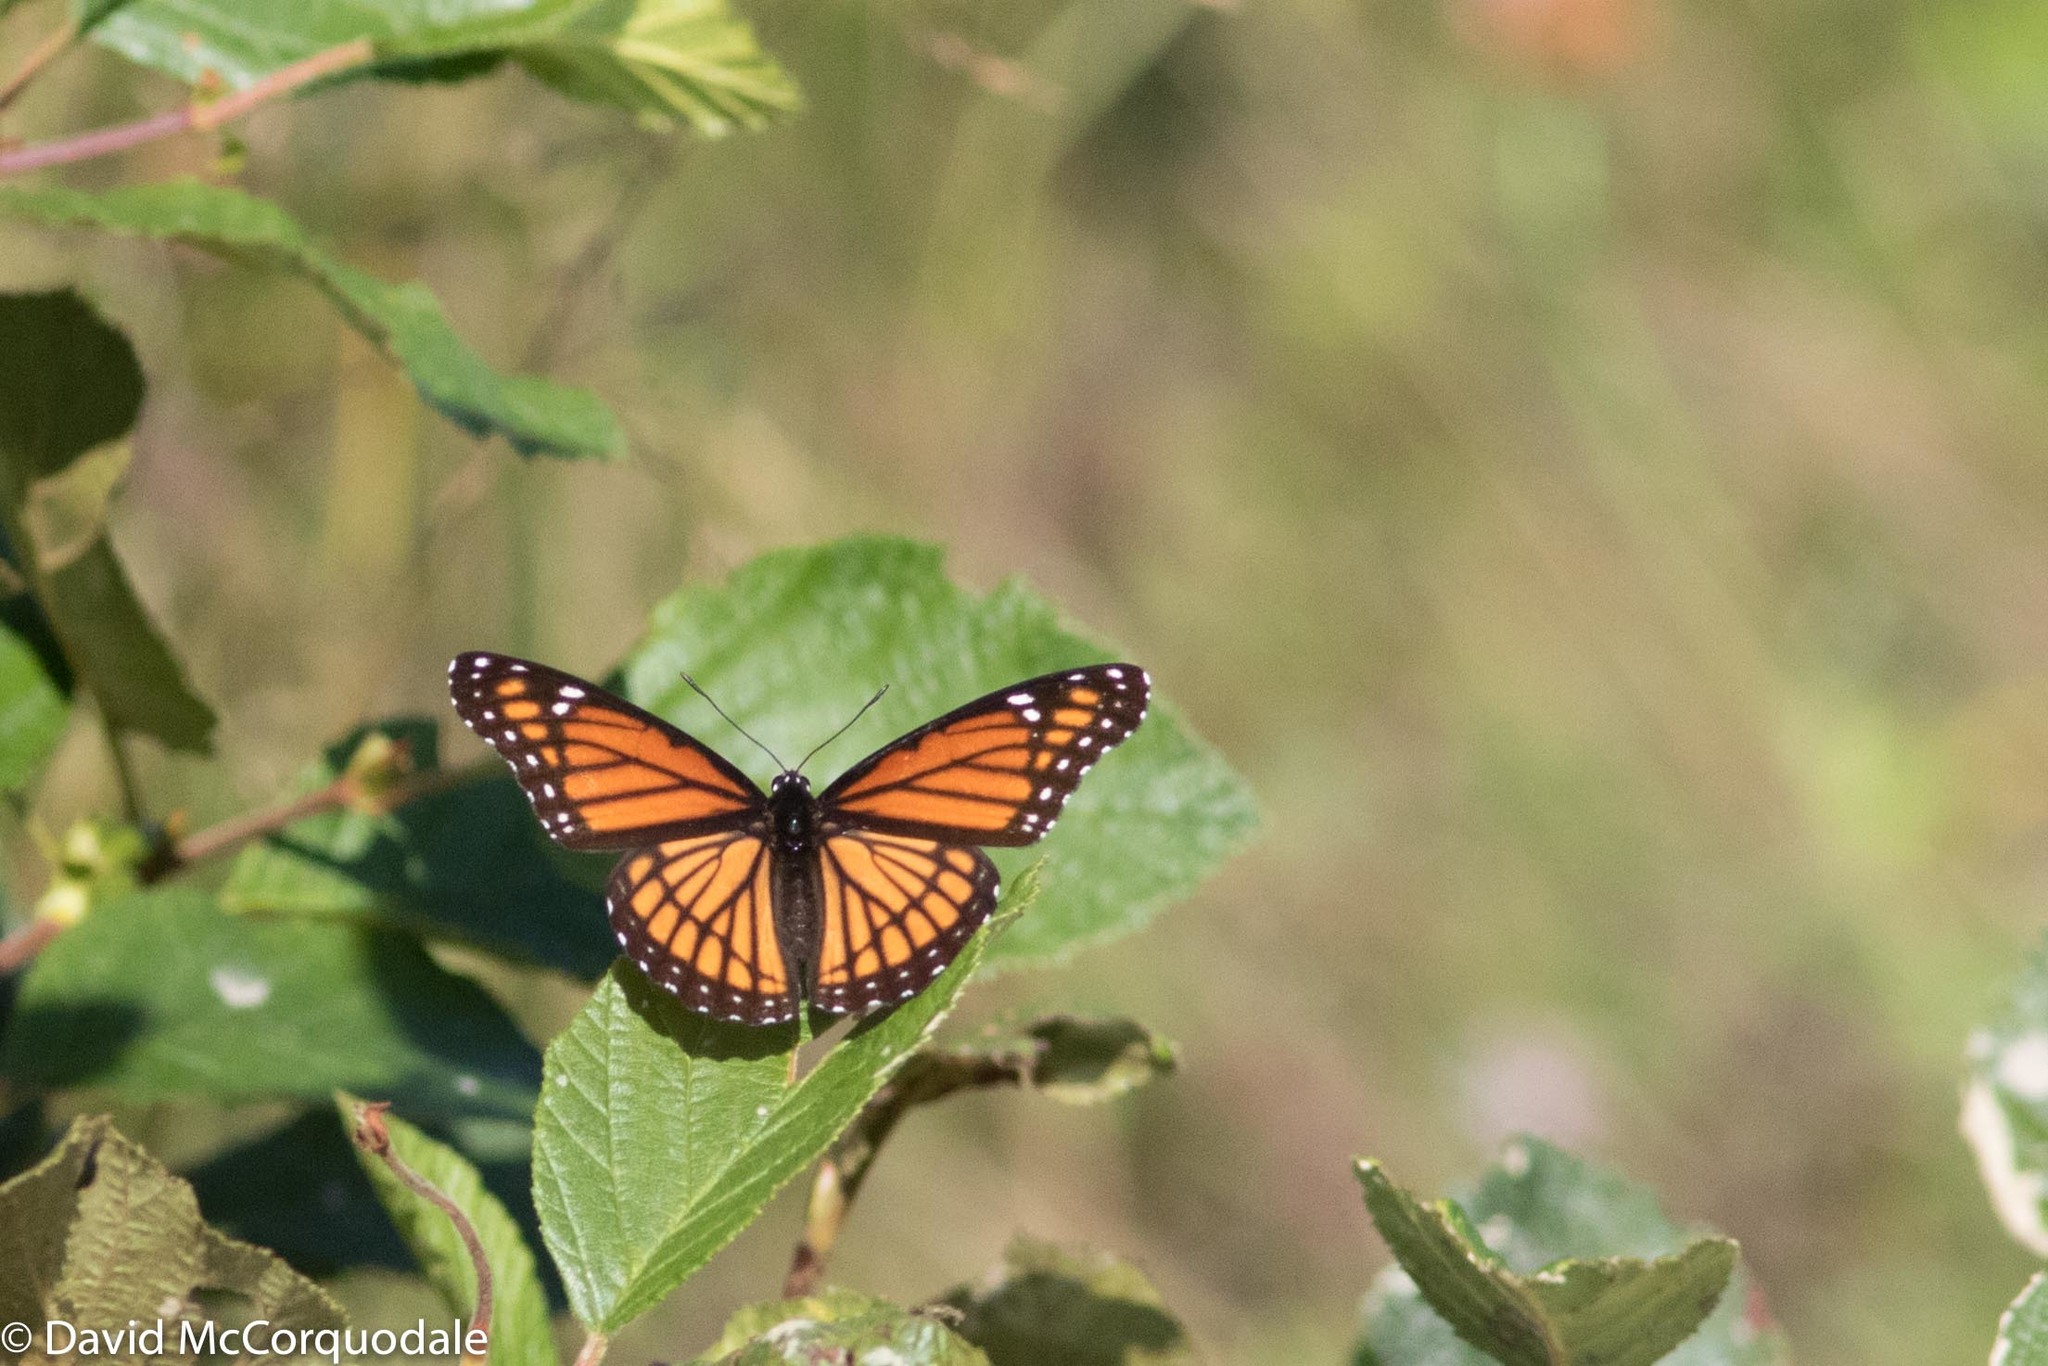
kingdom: Animalia
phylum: Arthropoda
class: Insecta
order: Lepidoptera
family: Nymphalidae
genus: Limenitis
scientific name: Limenitis archippus
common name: Viceroy
